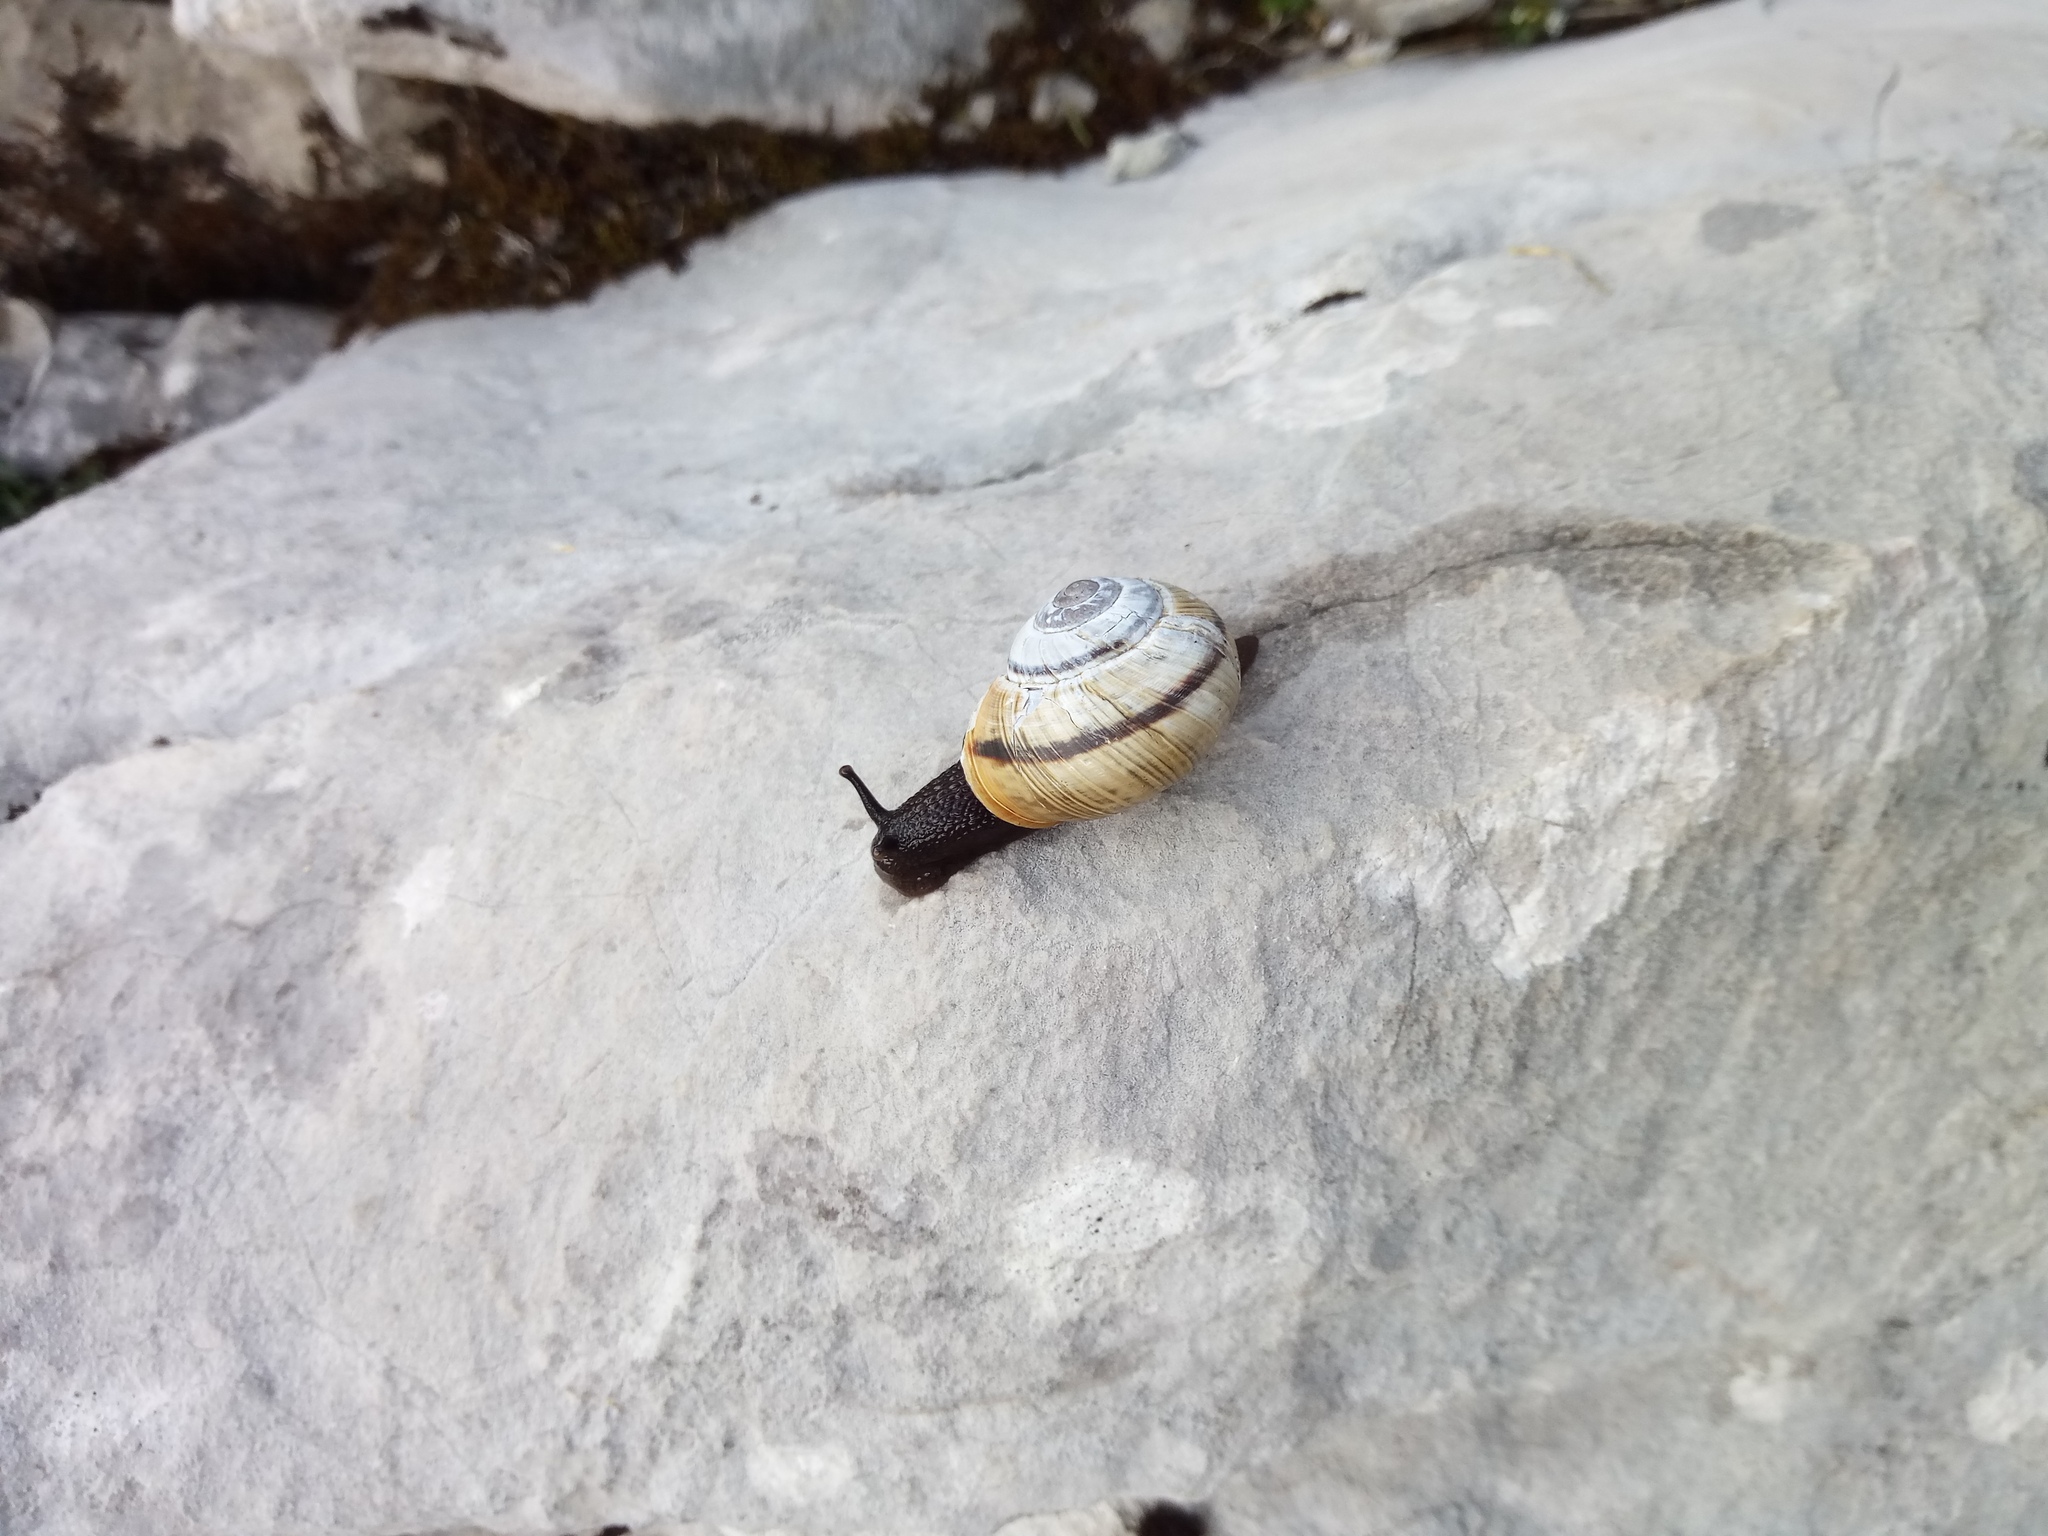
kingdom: Animalia
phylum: Mollusca
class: Gastropoda
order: Stylommatophora
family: Helicidae
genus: Arianta
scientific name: Arianta arbustorum
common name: Copse snail
